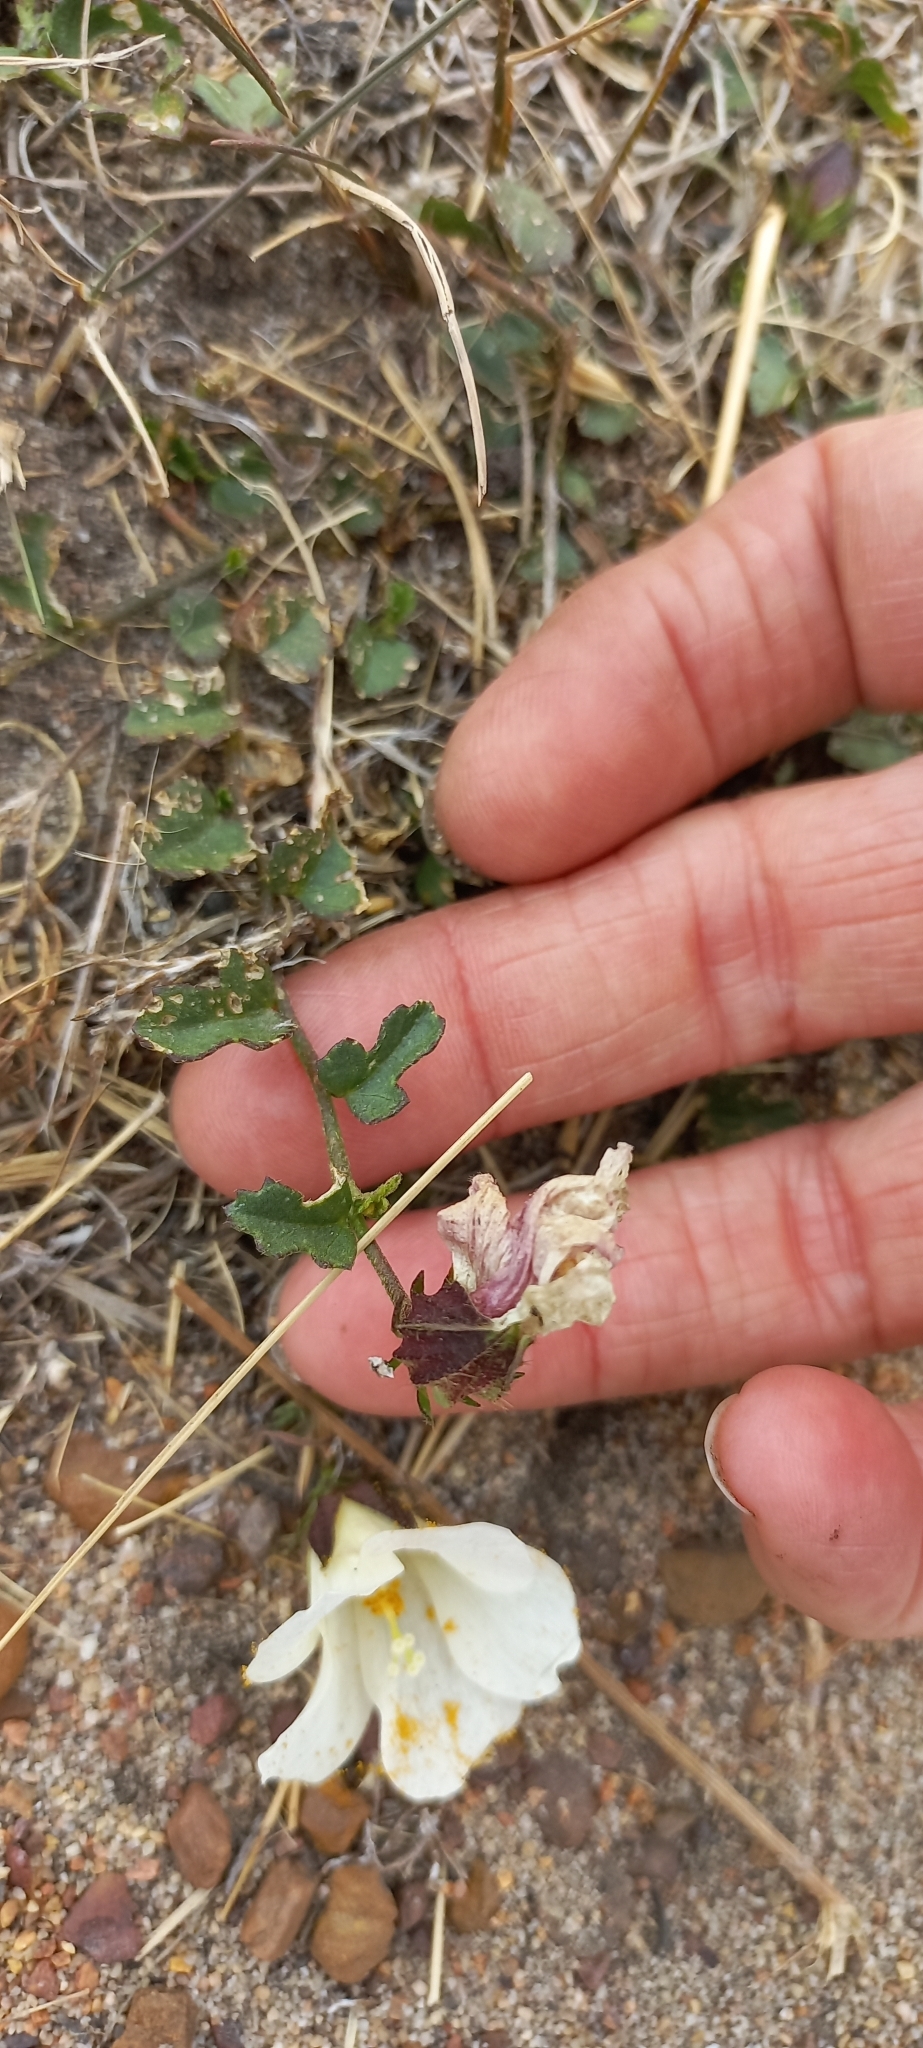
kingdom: Plantae
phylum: Tracheophyta
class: Magnoliopsida
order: Malvales
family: Malvaceae
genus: Hibiscus
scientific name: Hibiscus pusillus
